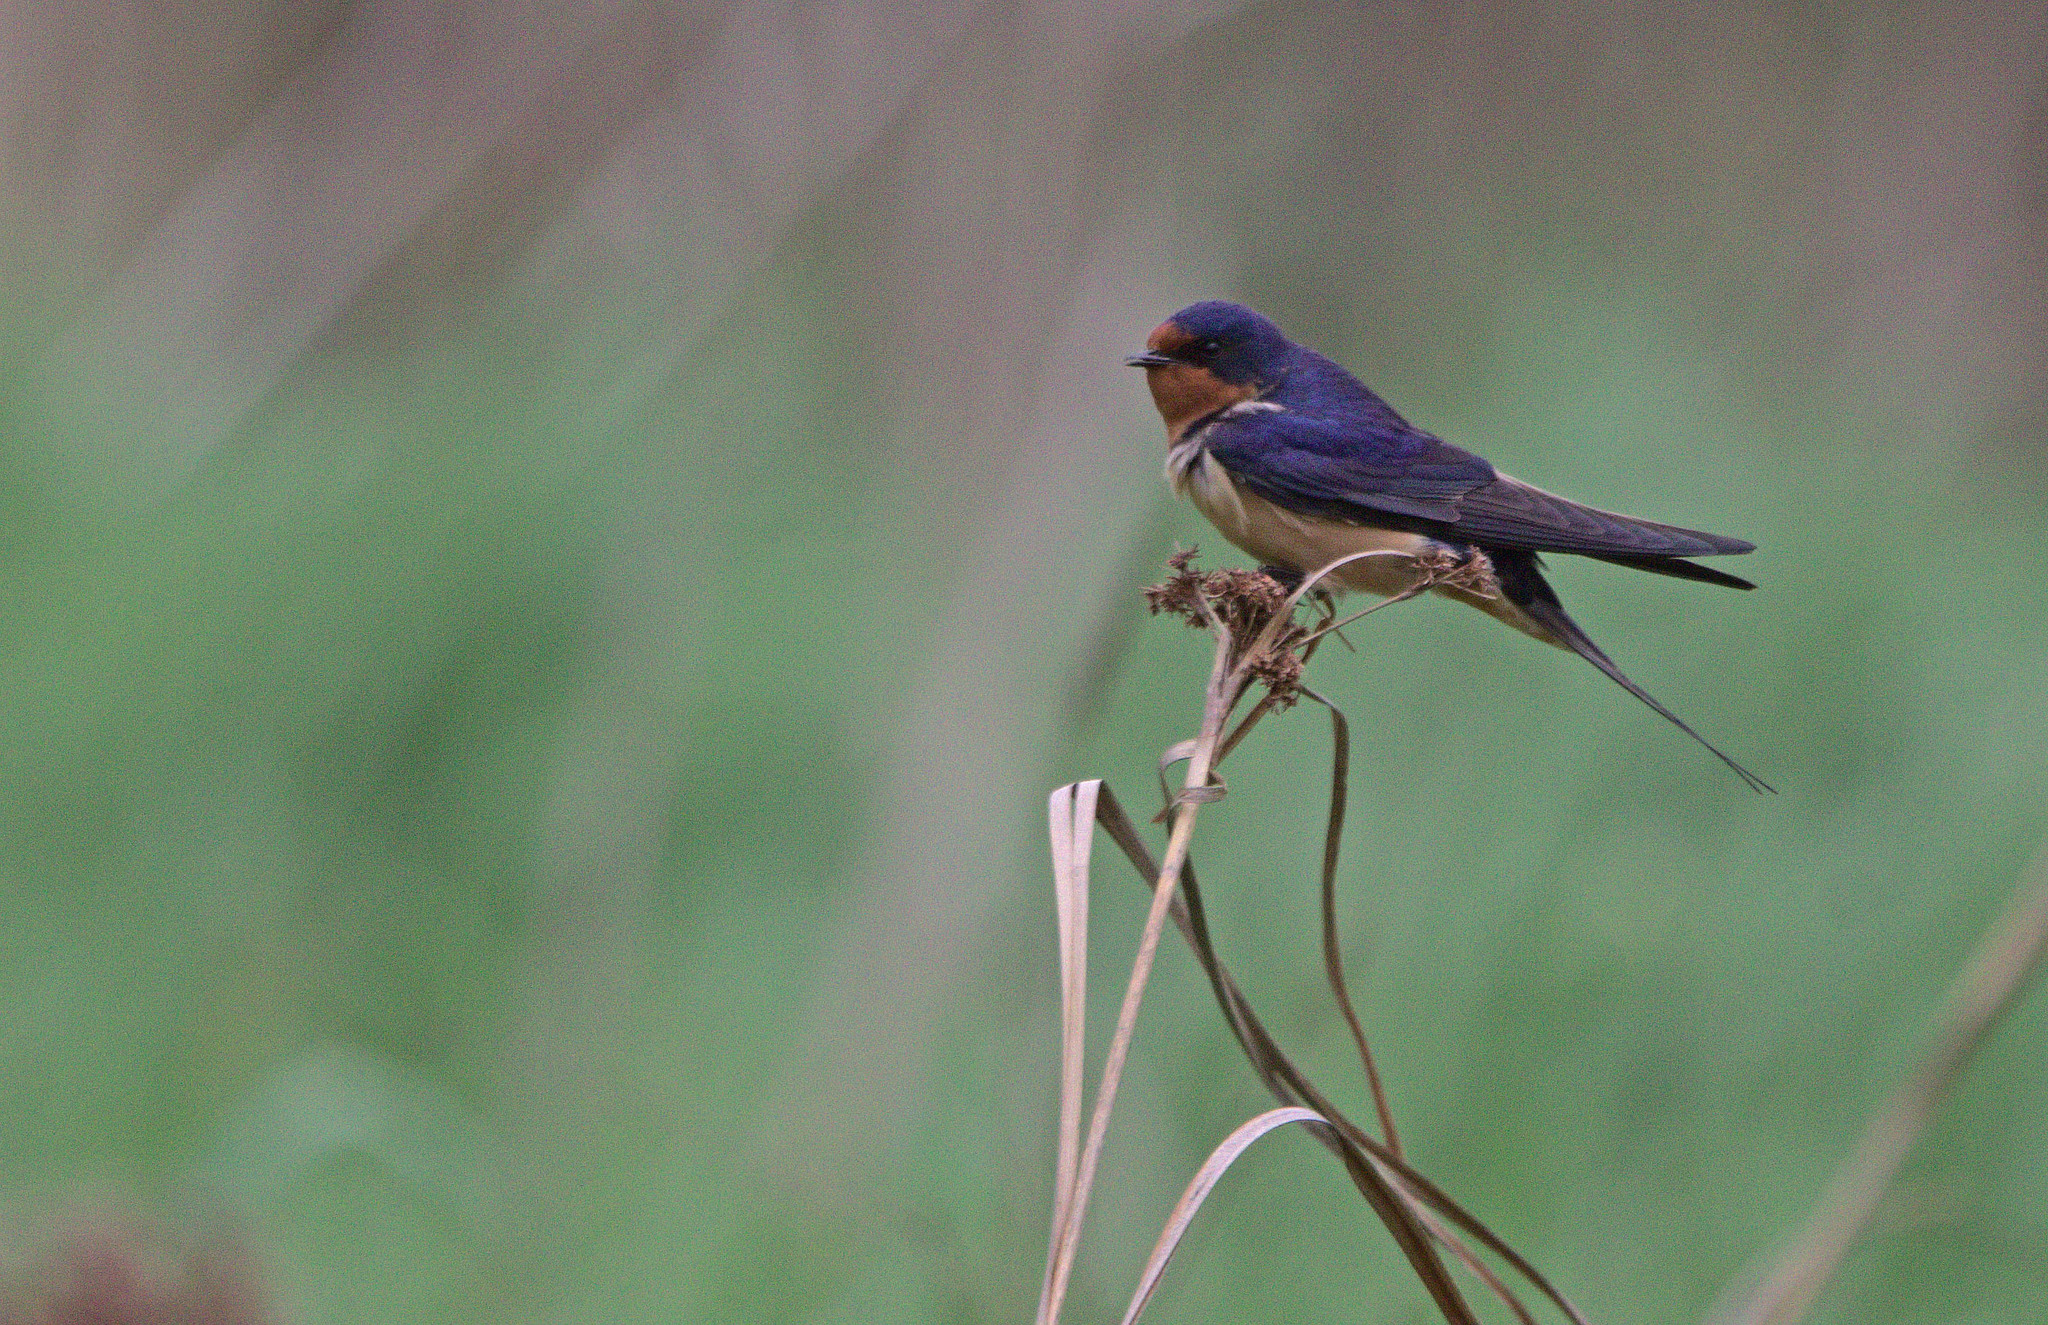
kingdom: Animalia
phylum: Chordata
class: Aves
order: Passeriformes
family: Hirundinidae
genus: Hirundo
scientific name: Hirundo rustica
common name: Barn swallow
